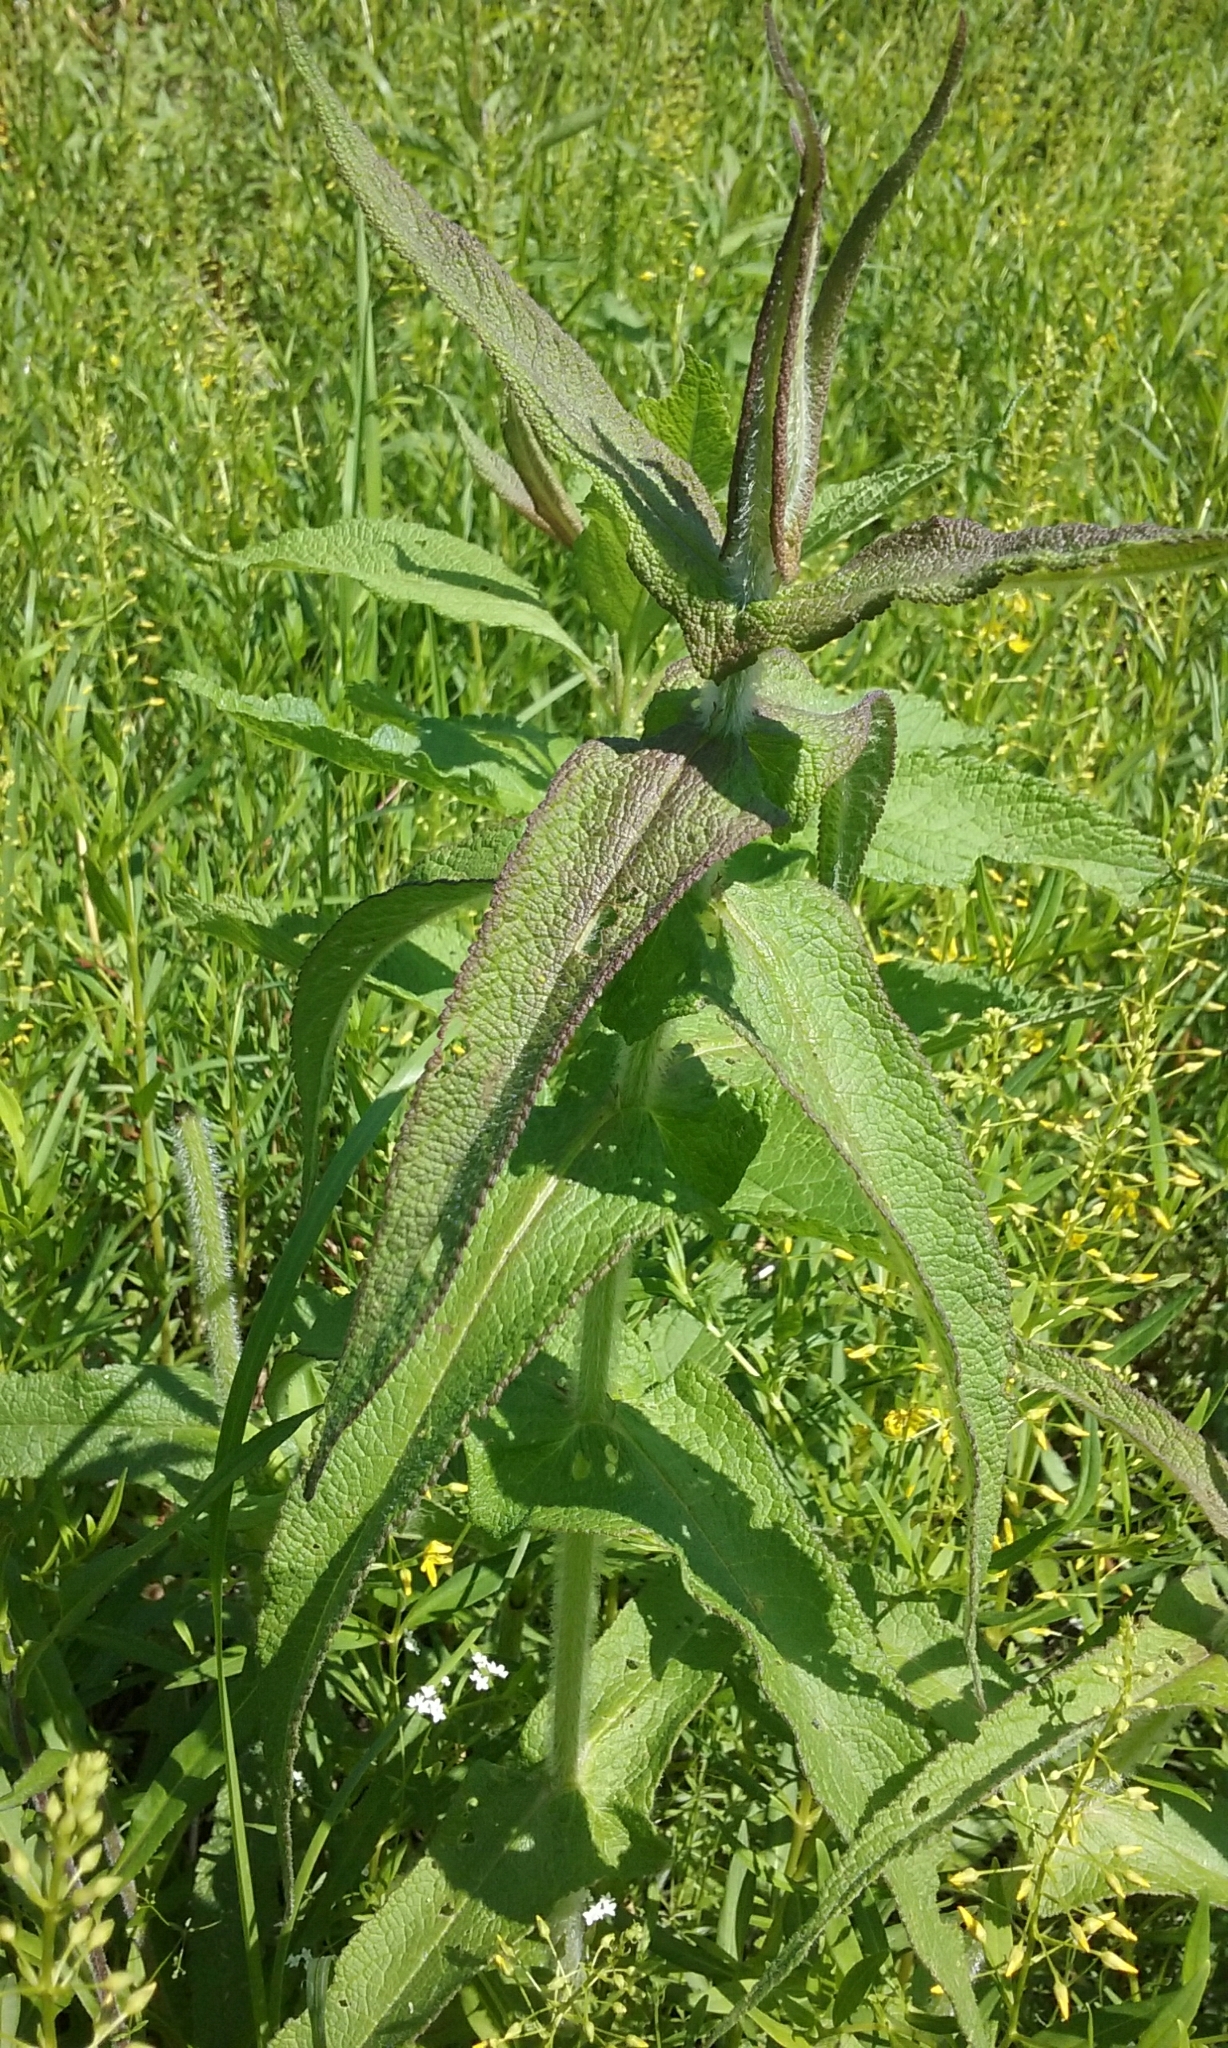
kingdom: Plantae
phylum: Tracheophyta
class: Magnoliopsida
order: Asterales
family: Asteraceae
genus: Eupatorium
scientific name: Eupatorium perfoliatum
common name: Boneset
